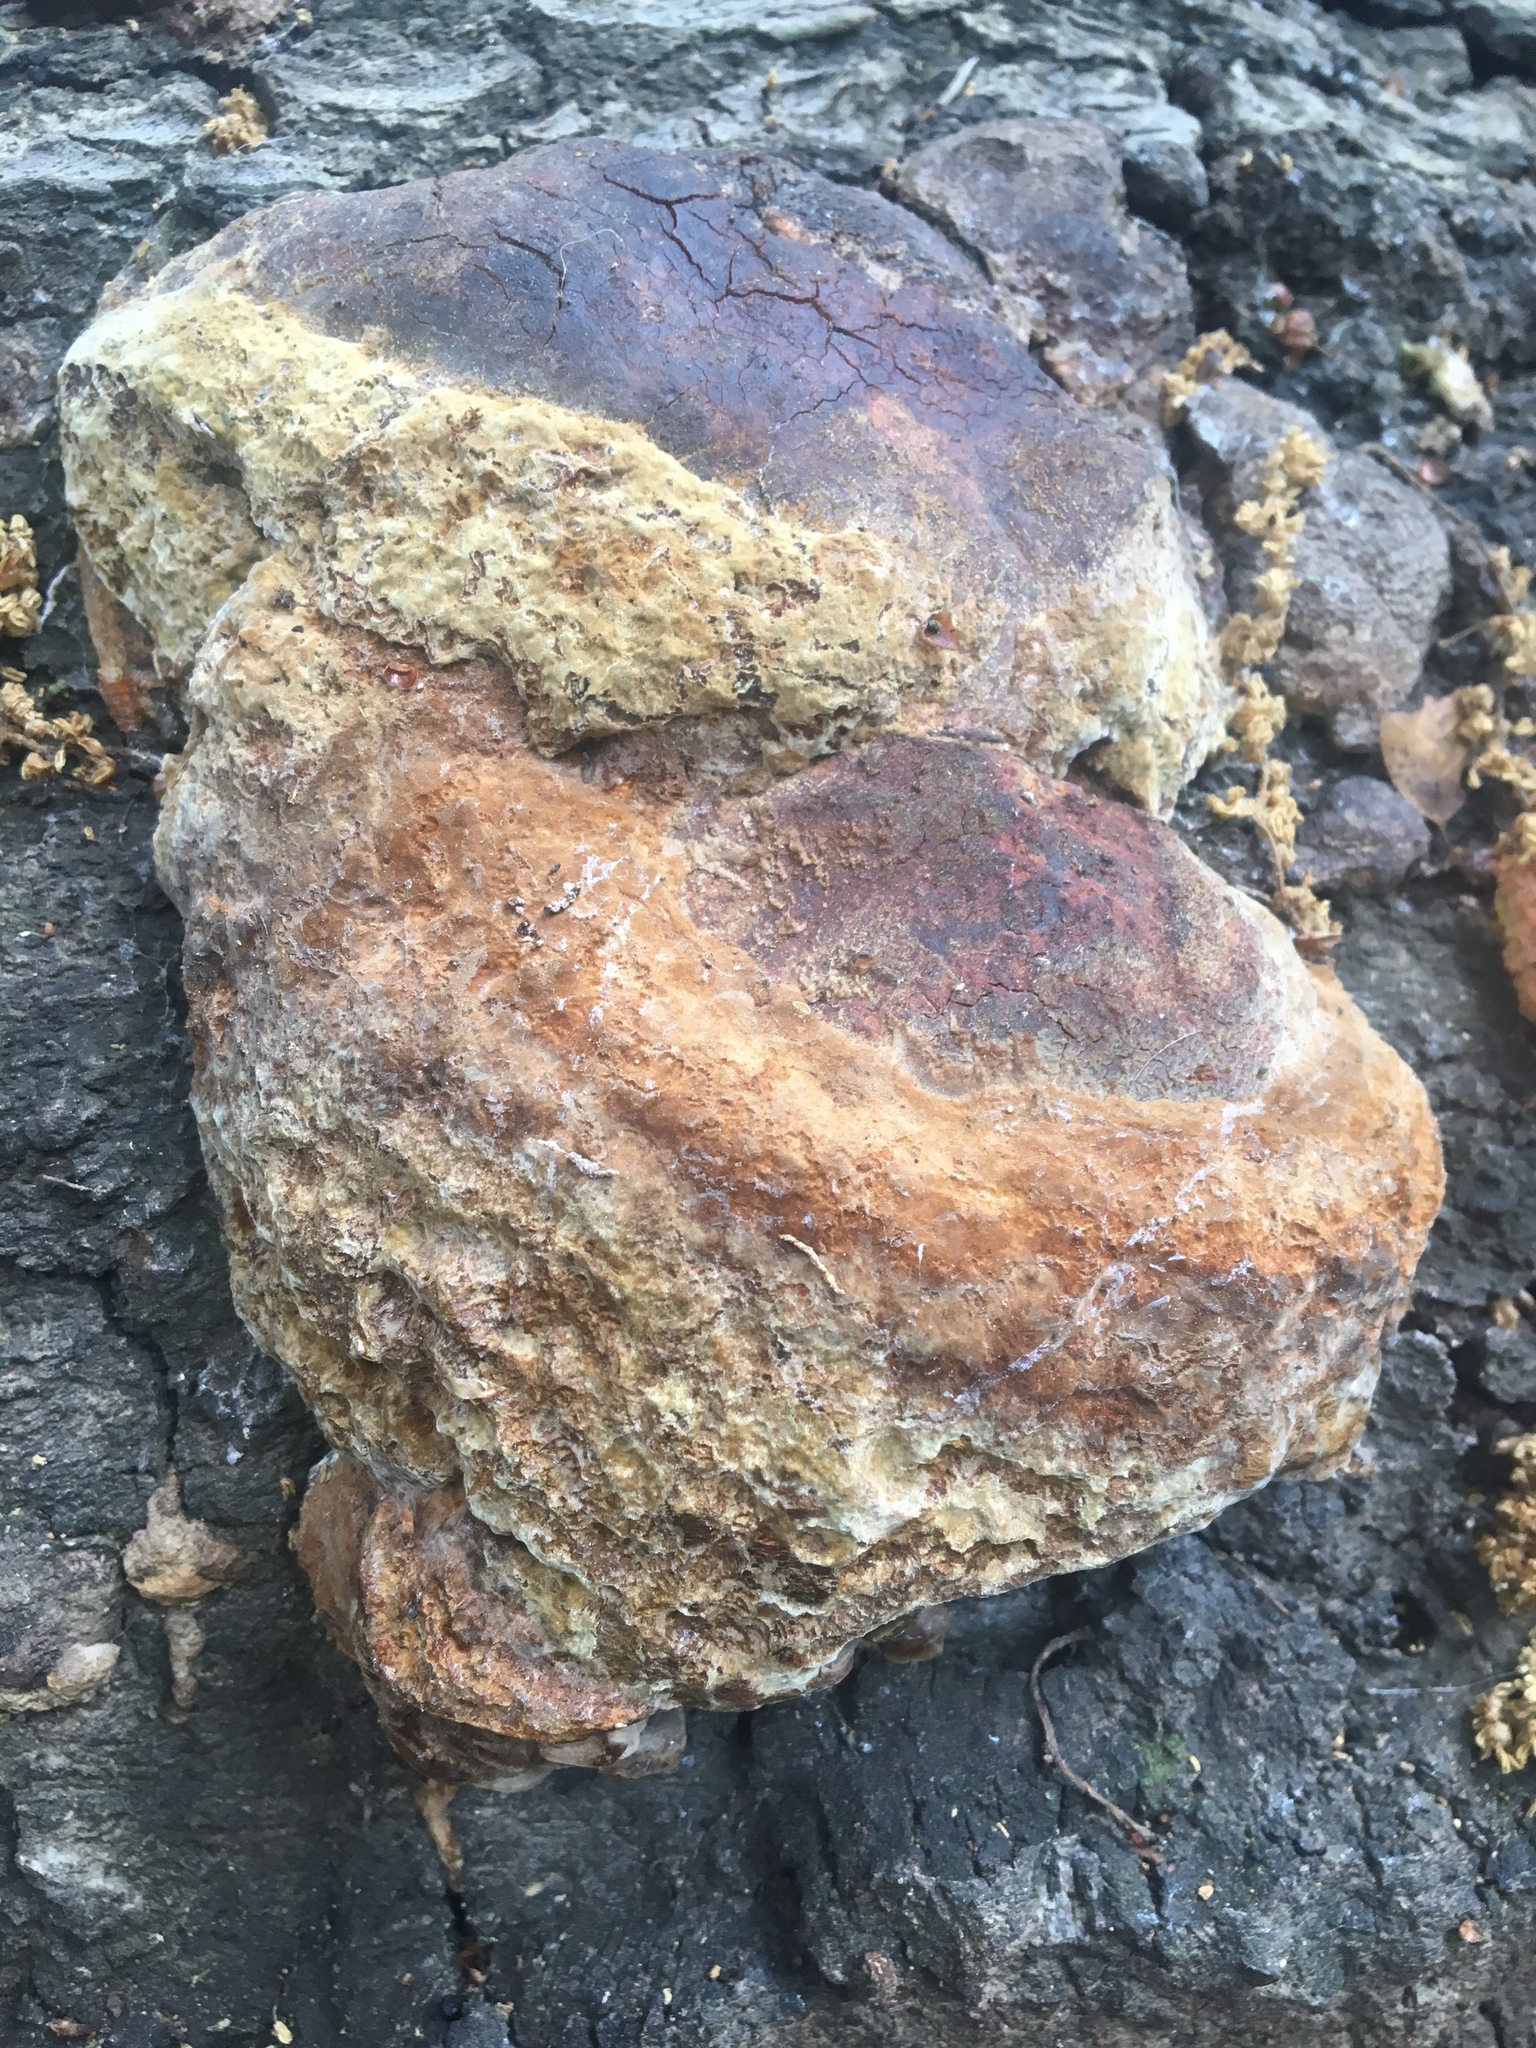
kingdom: Fungi
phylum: Basidiomycota
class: Agaricomycetes
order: Hymenochaetales
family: Hymenochaetaceae
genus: Phellinus
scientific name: Phellinus gilvus
